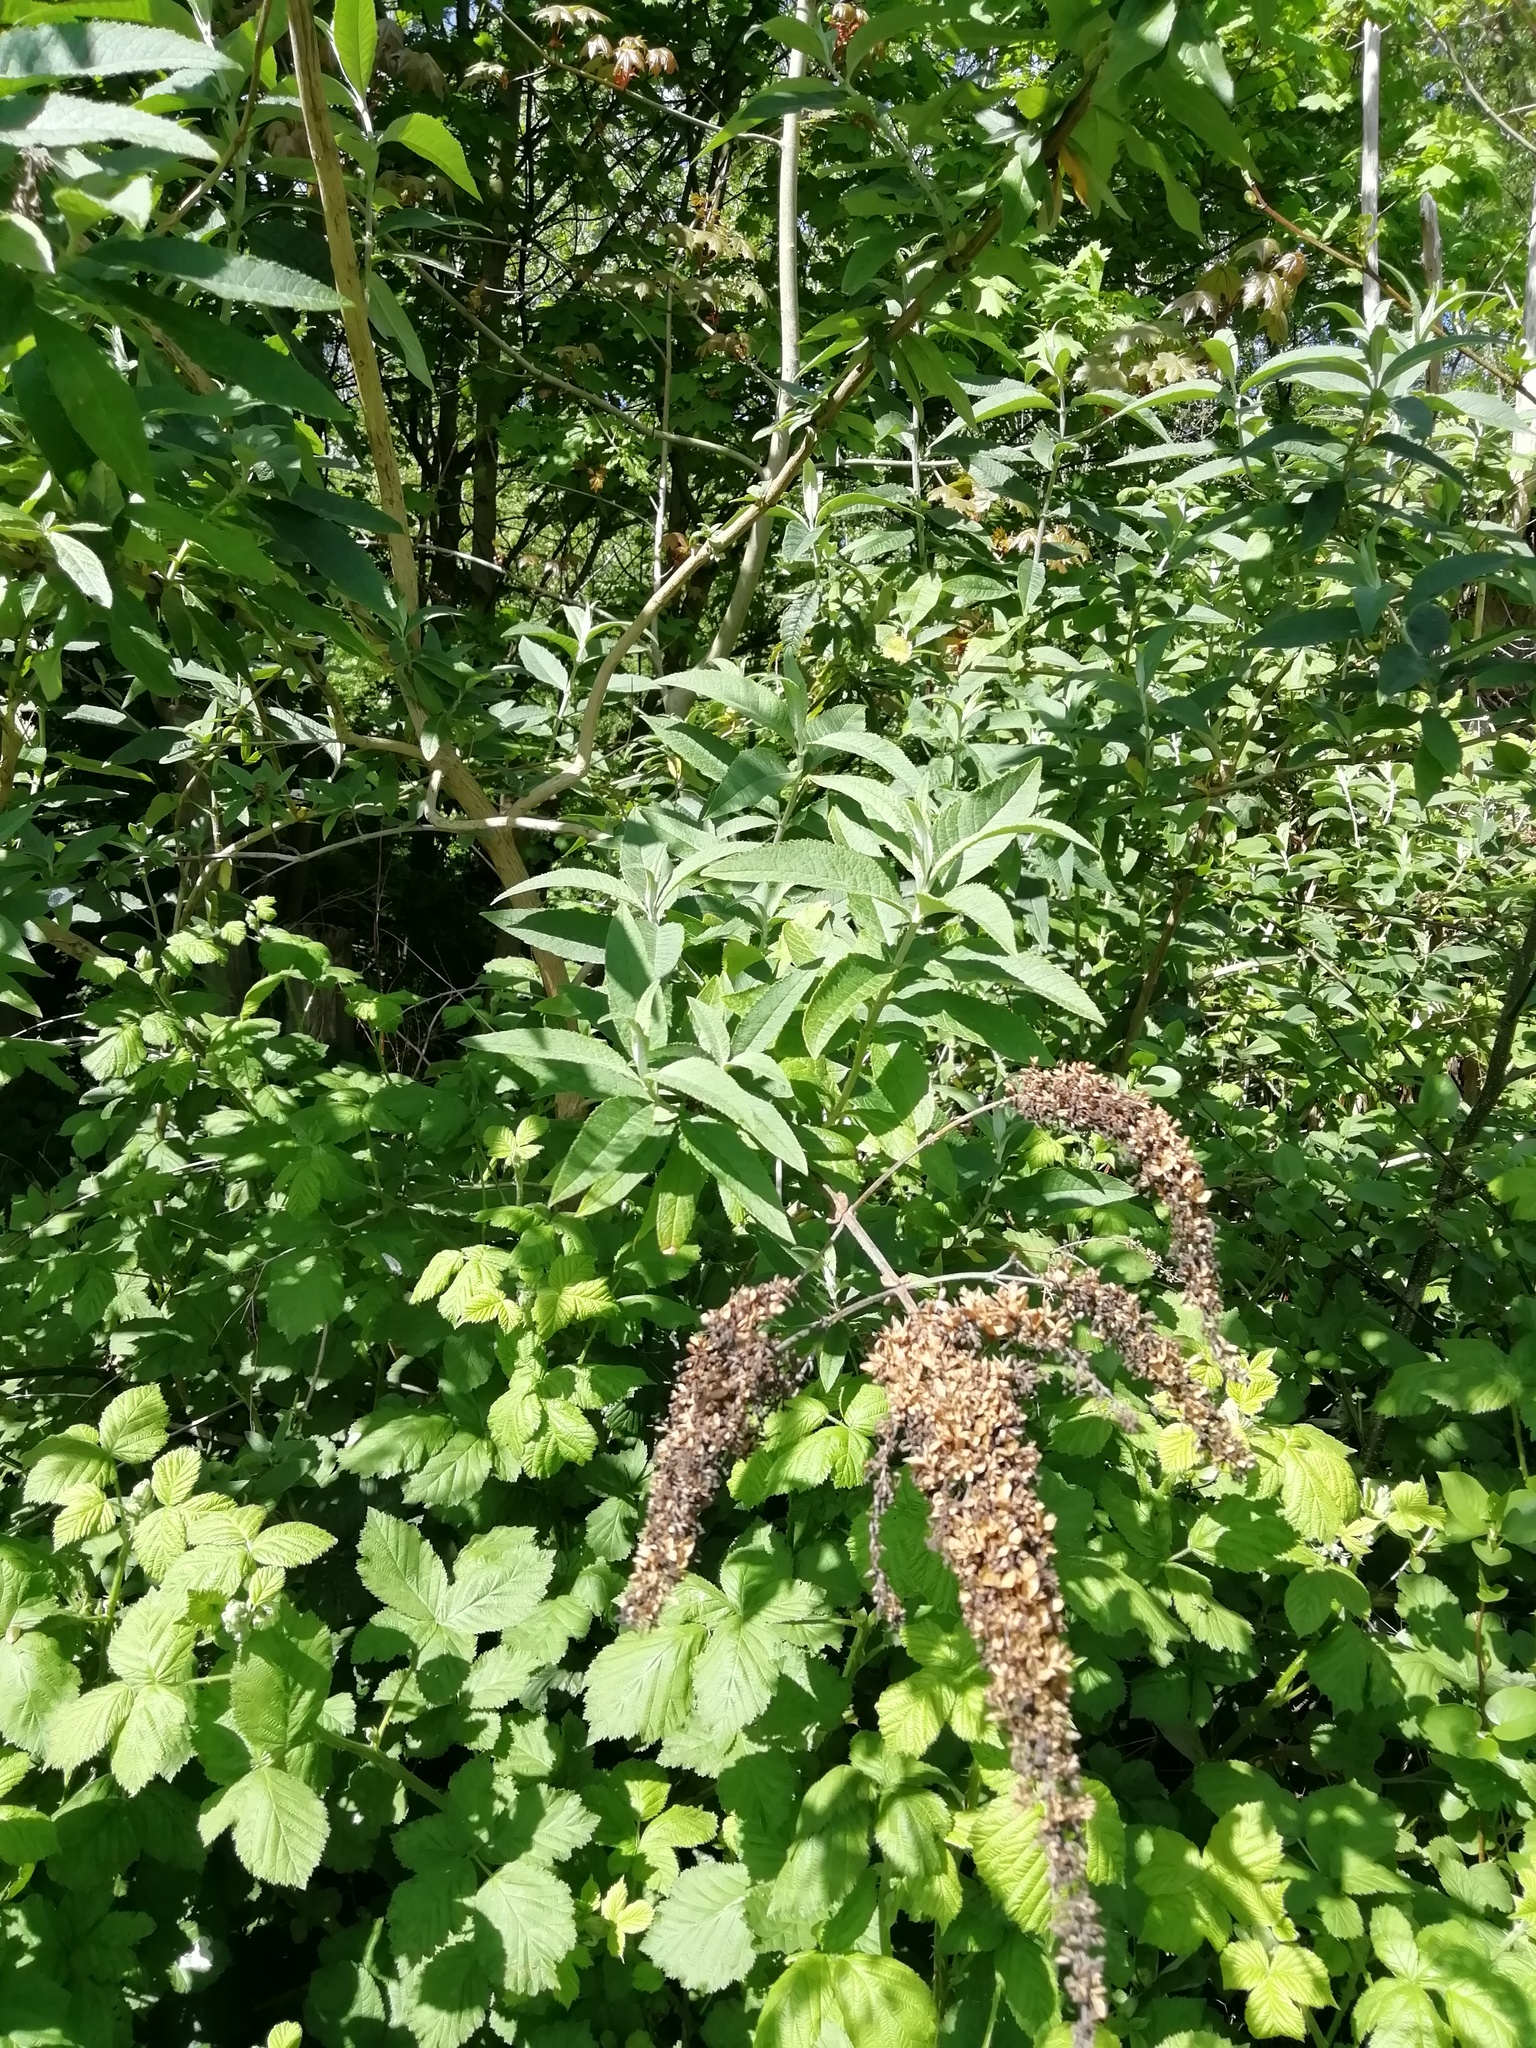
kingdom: Plantae
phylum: Tracheophyta
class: Magnoliopsida
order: Lamiales
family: Scrophulariaceae
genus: Buddleja
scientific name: Buddleja davidii
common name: Butterfly-bush
